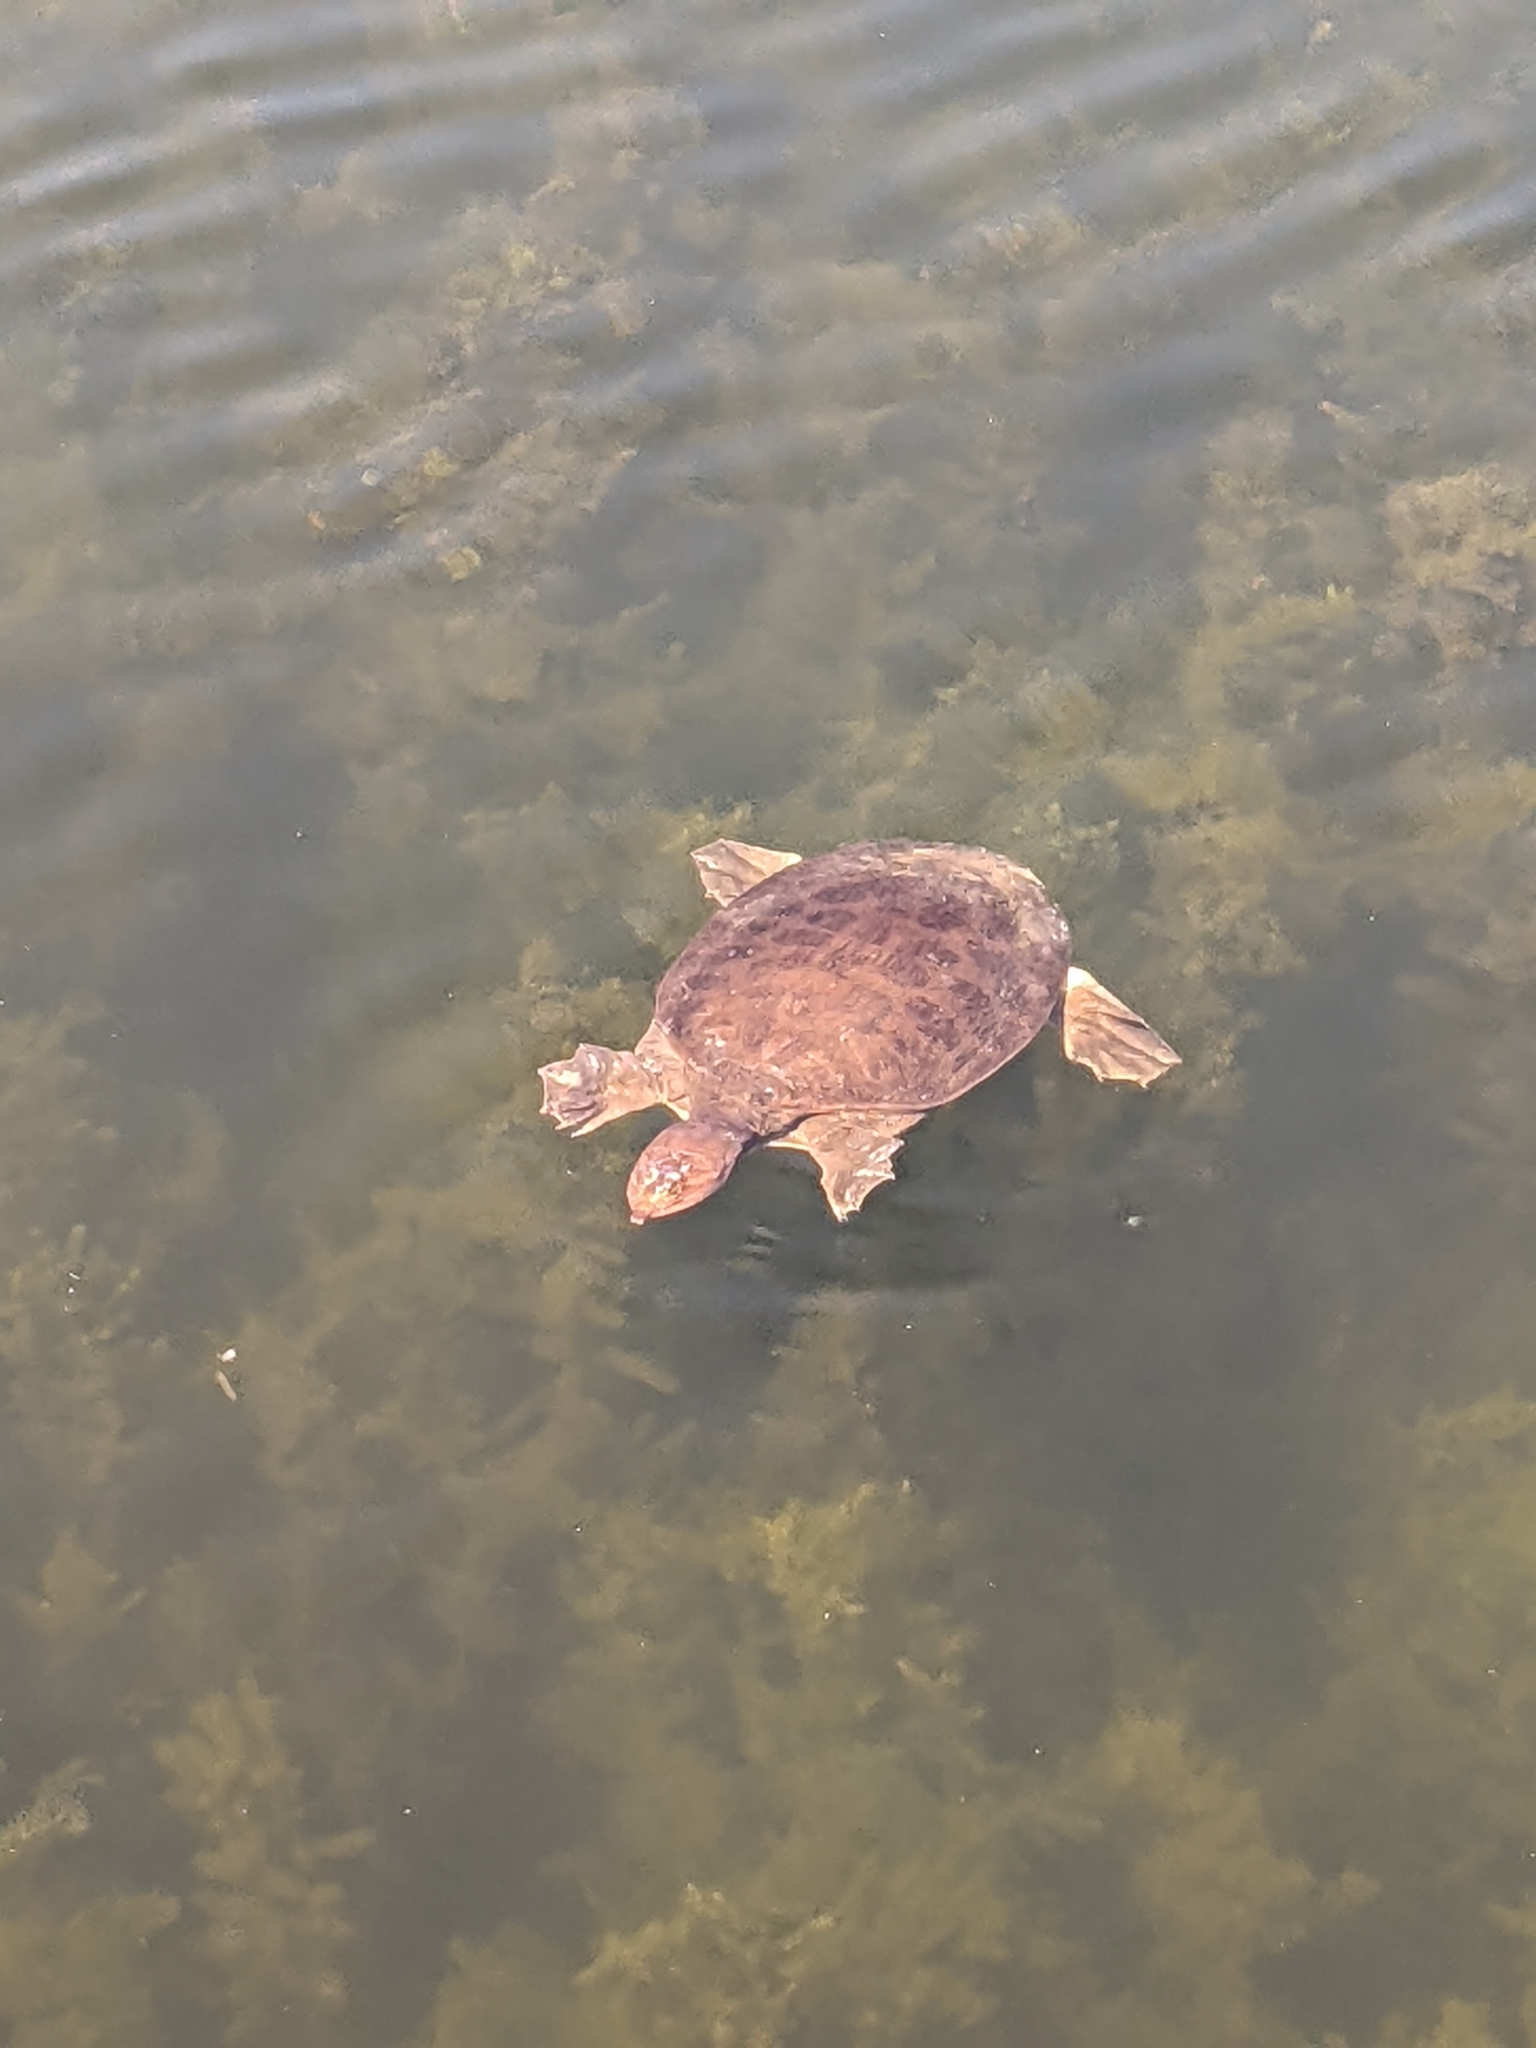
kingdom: Animalia
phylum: Chordata
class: Testudines
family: Trionychidae
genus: Apalone
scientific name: Apalone ferox
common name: Florida softshell turtle
